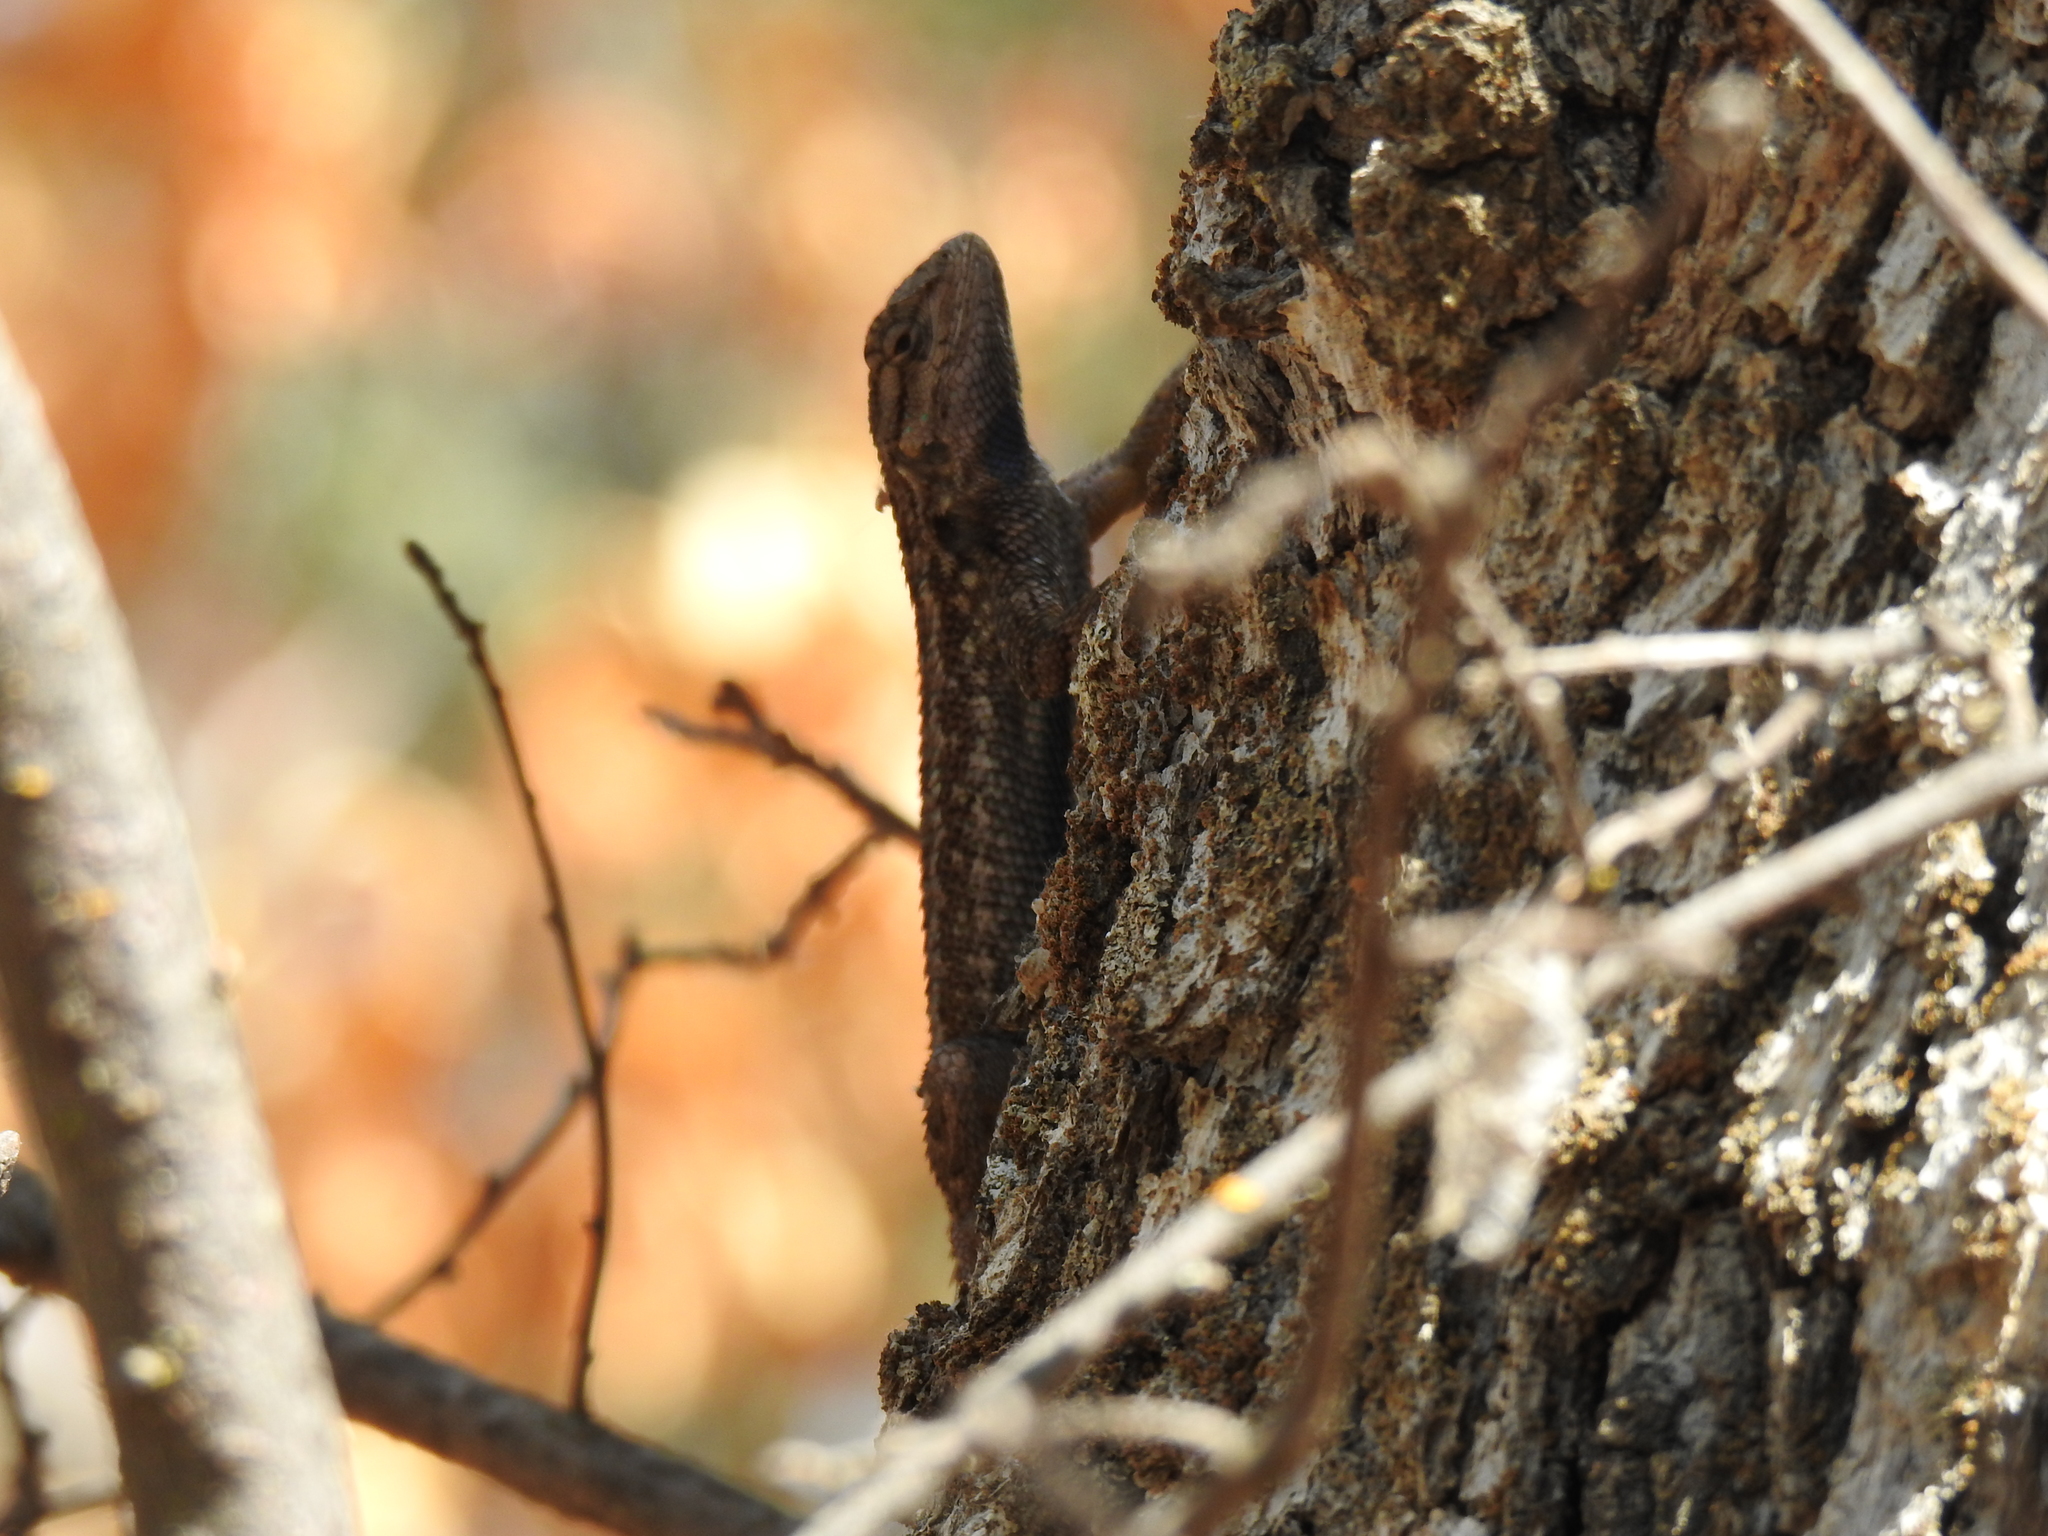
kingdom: Animalia
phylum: Chordata
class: Squamata
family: Phrynosomatidae
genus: Sceloporus
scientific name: Sceloporus occidentalis
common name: Western fence lizard
